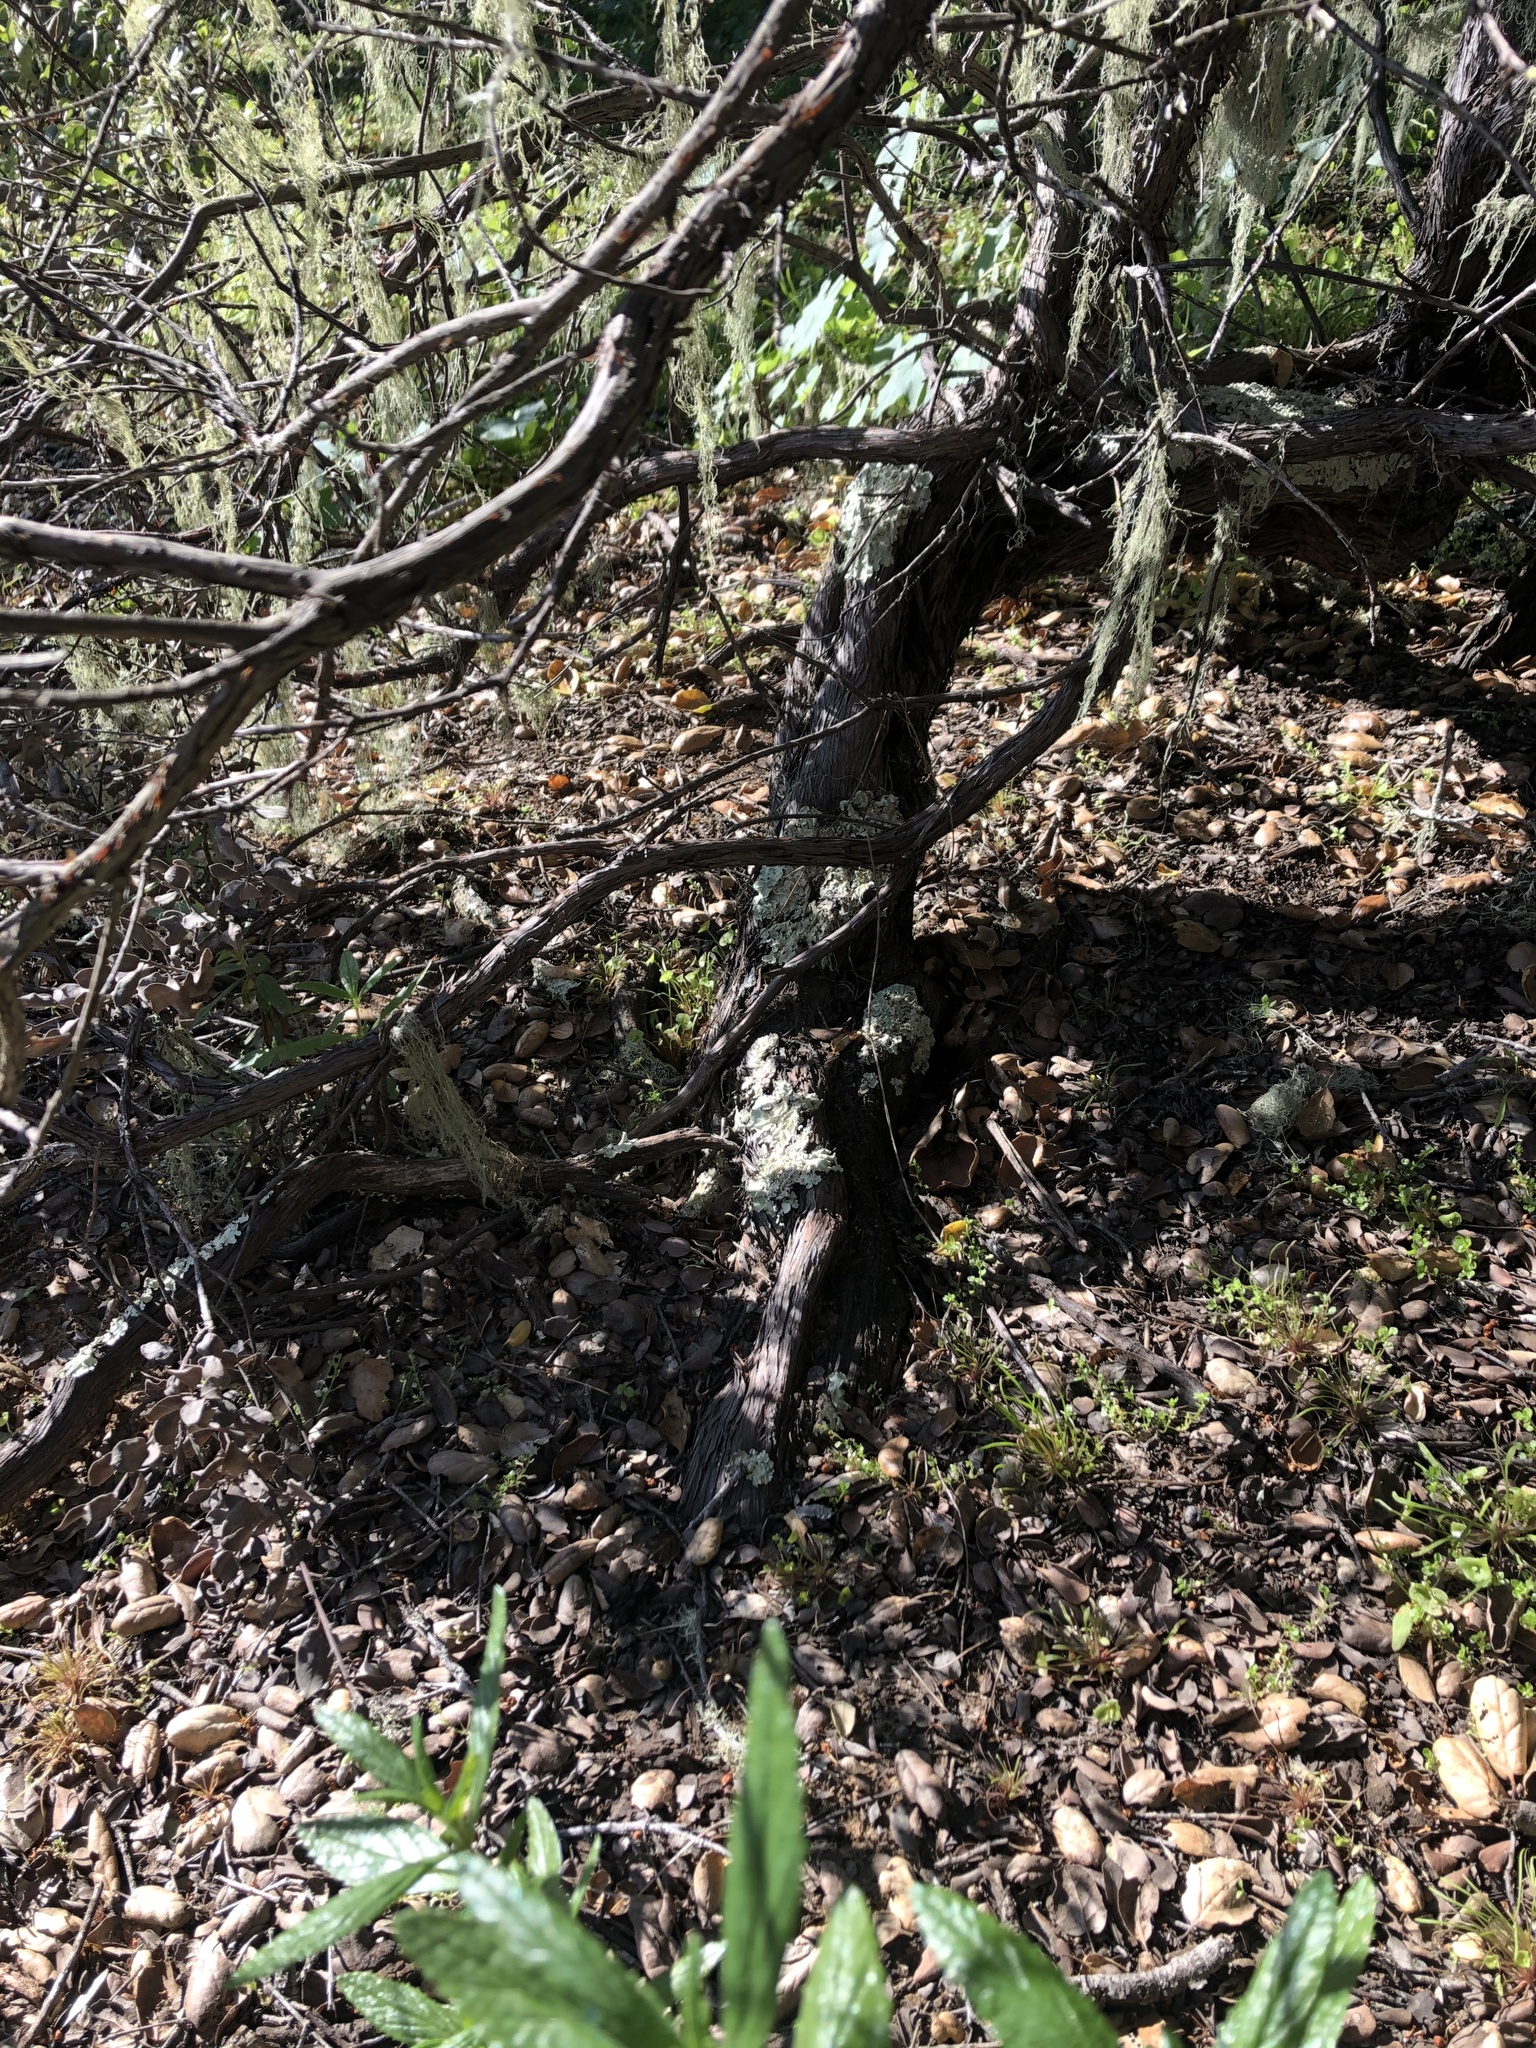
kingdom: Plantae
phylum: Tracheophyta
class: Magnoliopsida
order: Ericales
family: Ericaceae
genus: Arctostaphylos
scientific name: Arctostaphylos morroensis
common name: Morro manzanita
